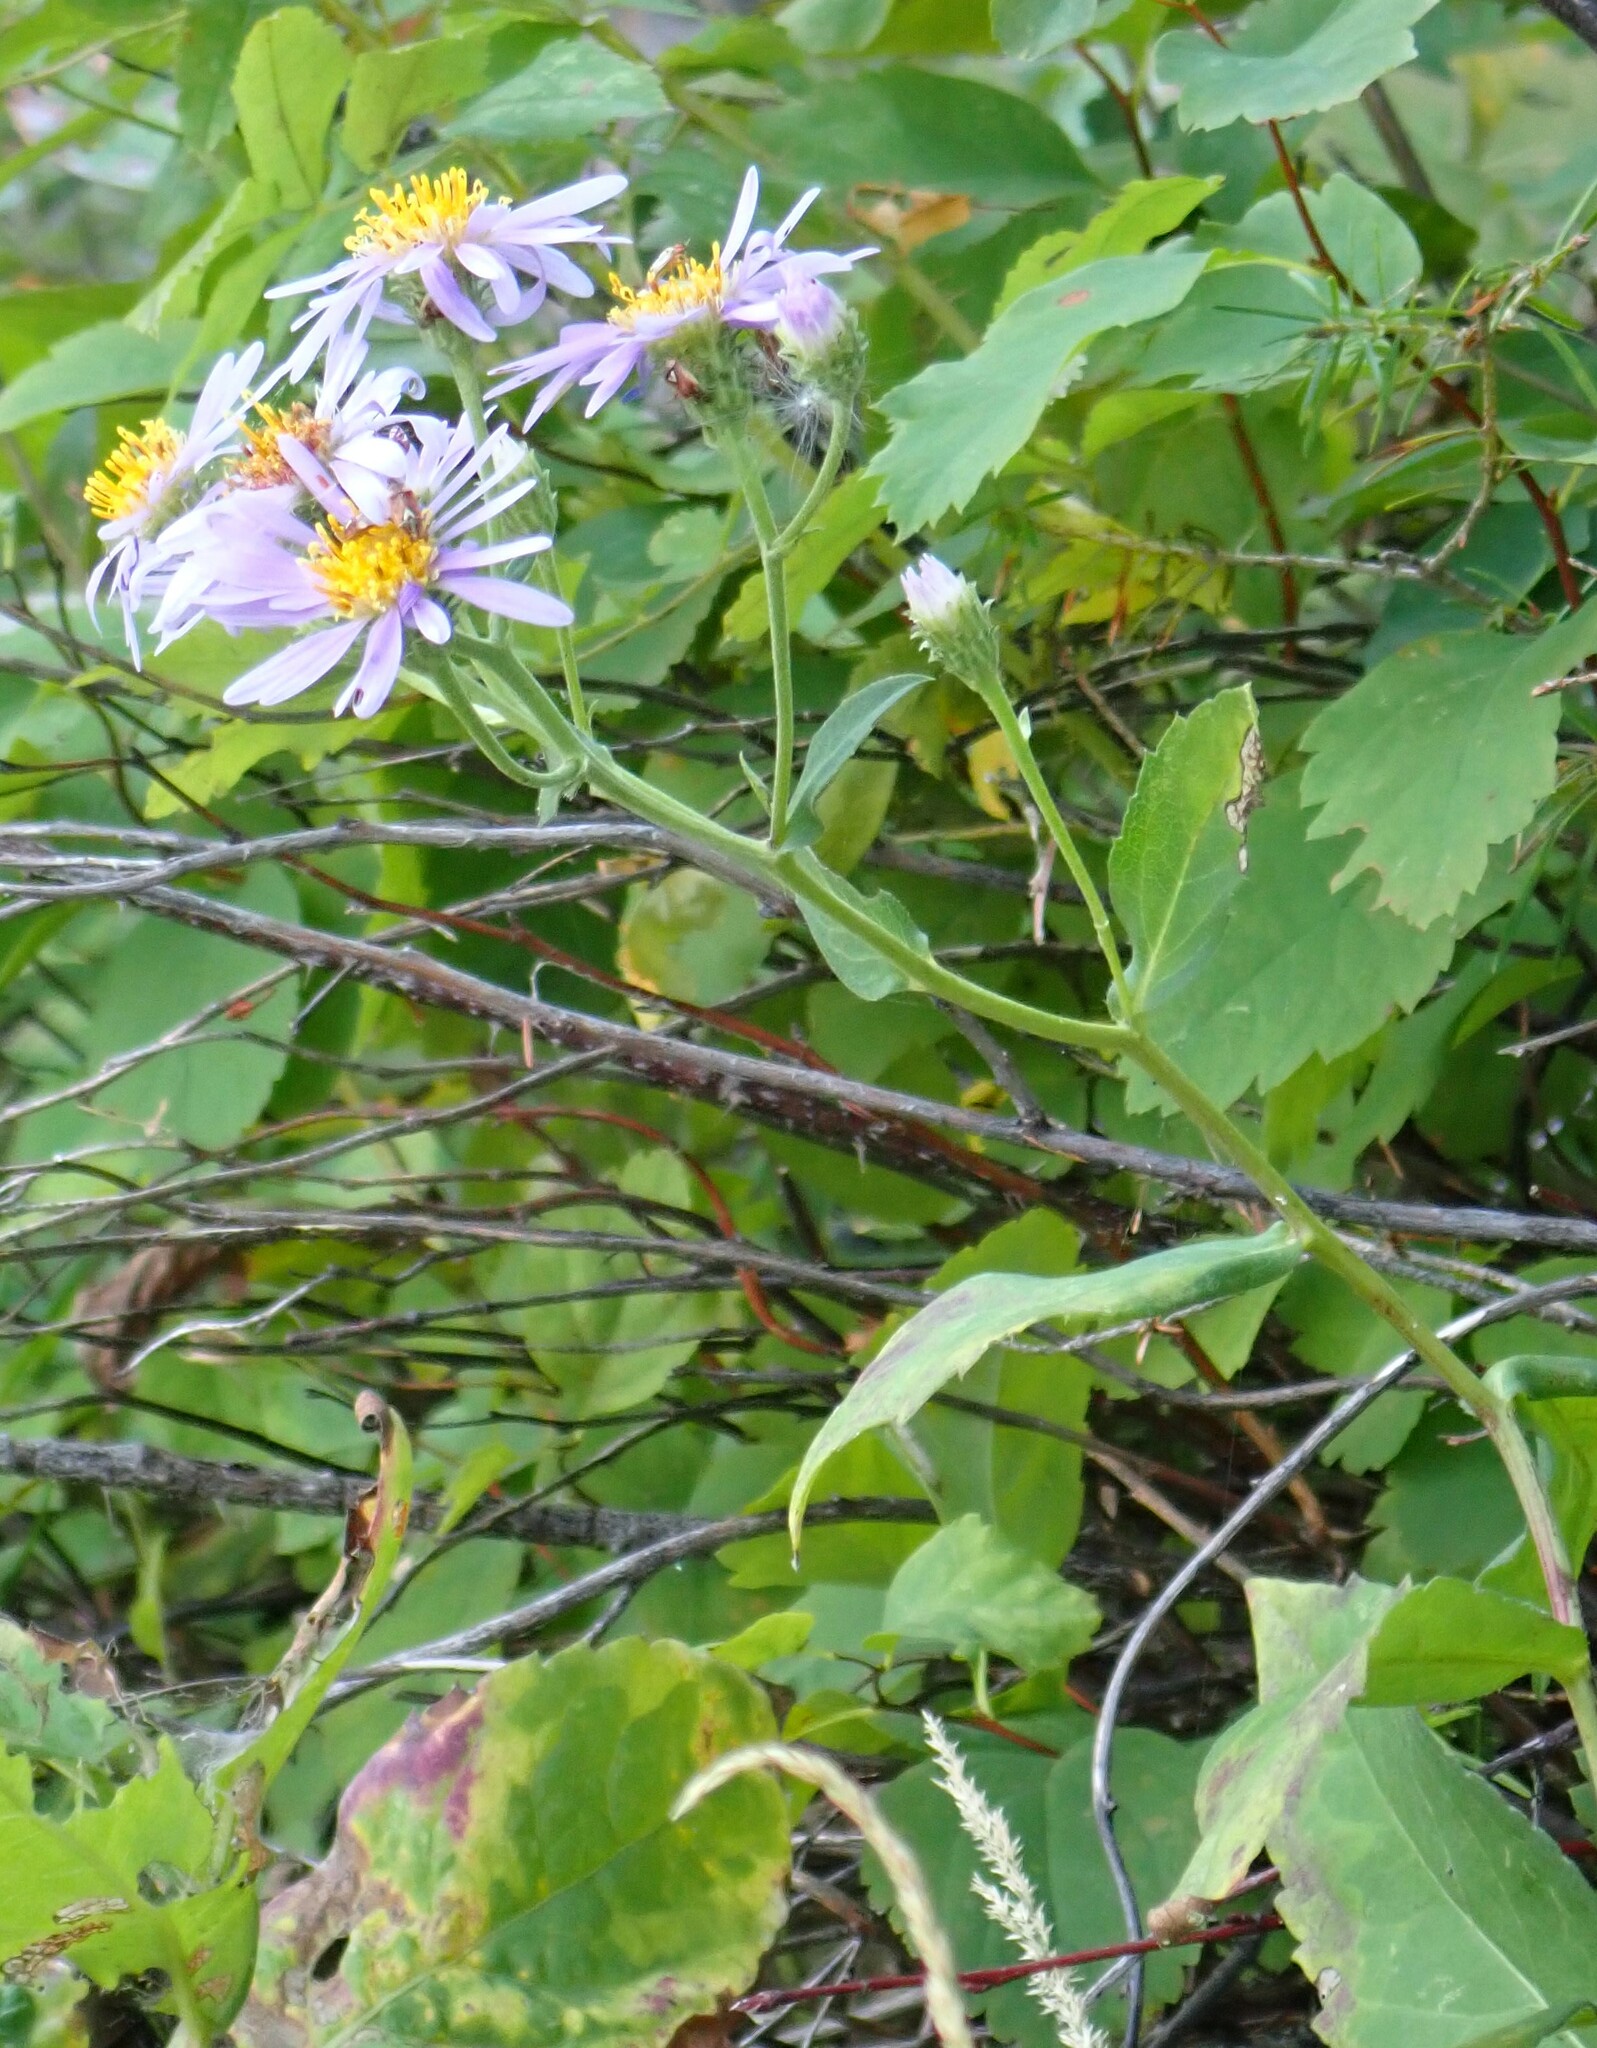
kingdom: Plantae
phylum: Tracheophyta
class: Magnoliopsida
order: Asterales
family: Asteraceae
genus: Eurybia
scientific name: Eurybia conspicua
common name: Showy aster
